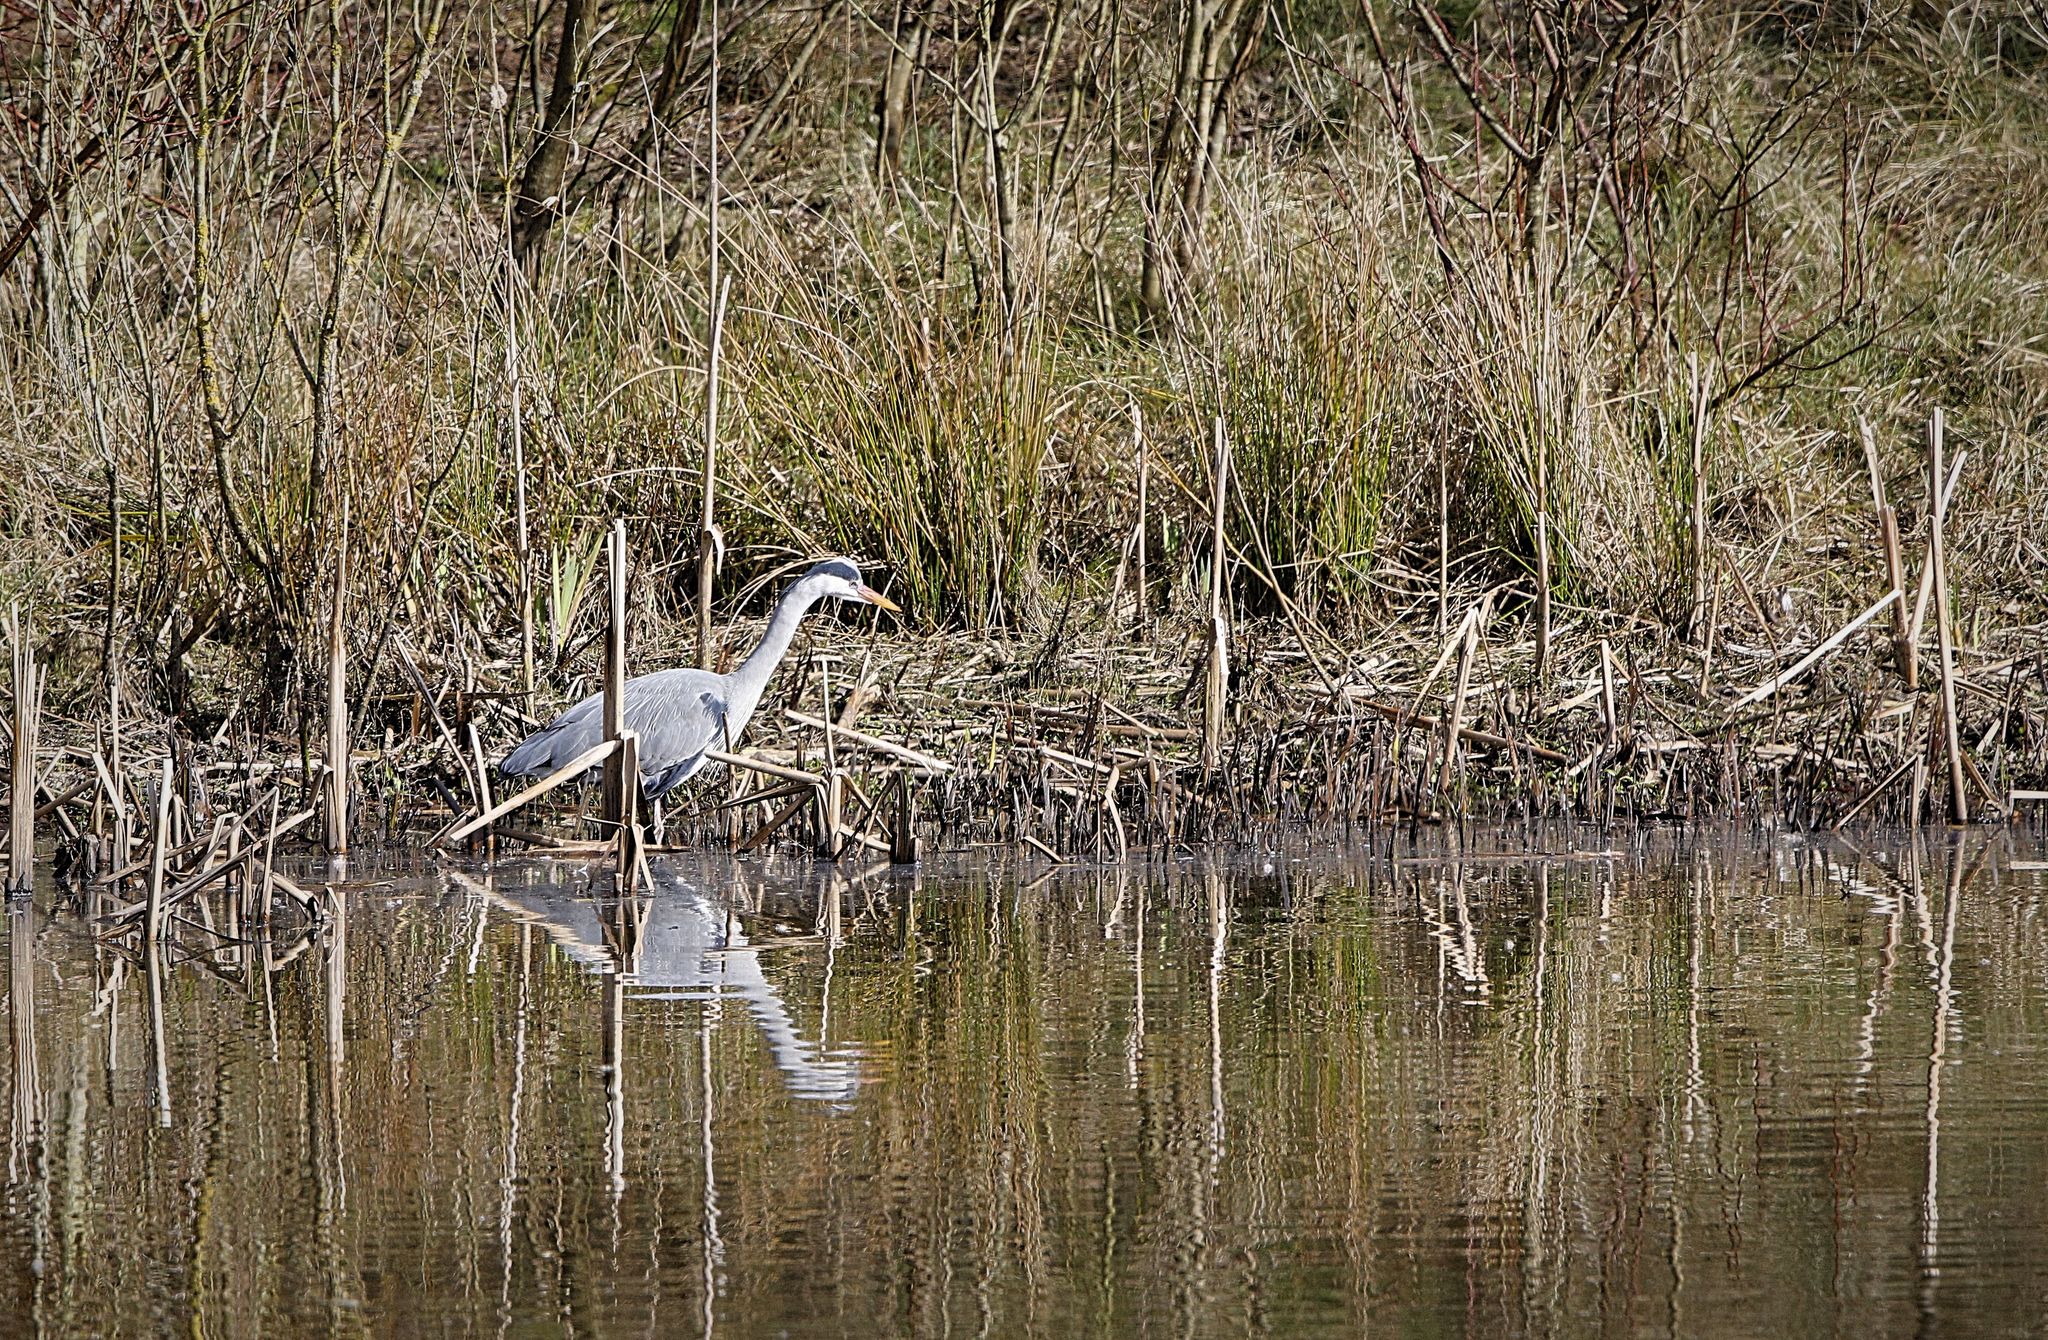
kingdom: Animalia
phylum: Chordata
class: Aves
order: Pelecaniformes
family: Ardeidae
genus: Ardea
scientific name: Ardea cinerea
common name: Grey heron
